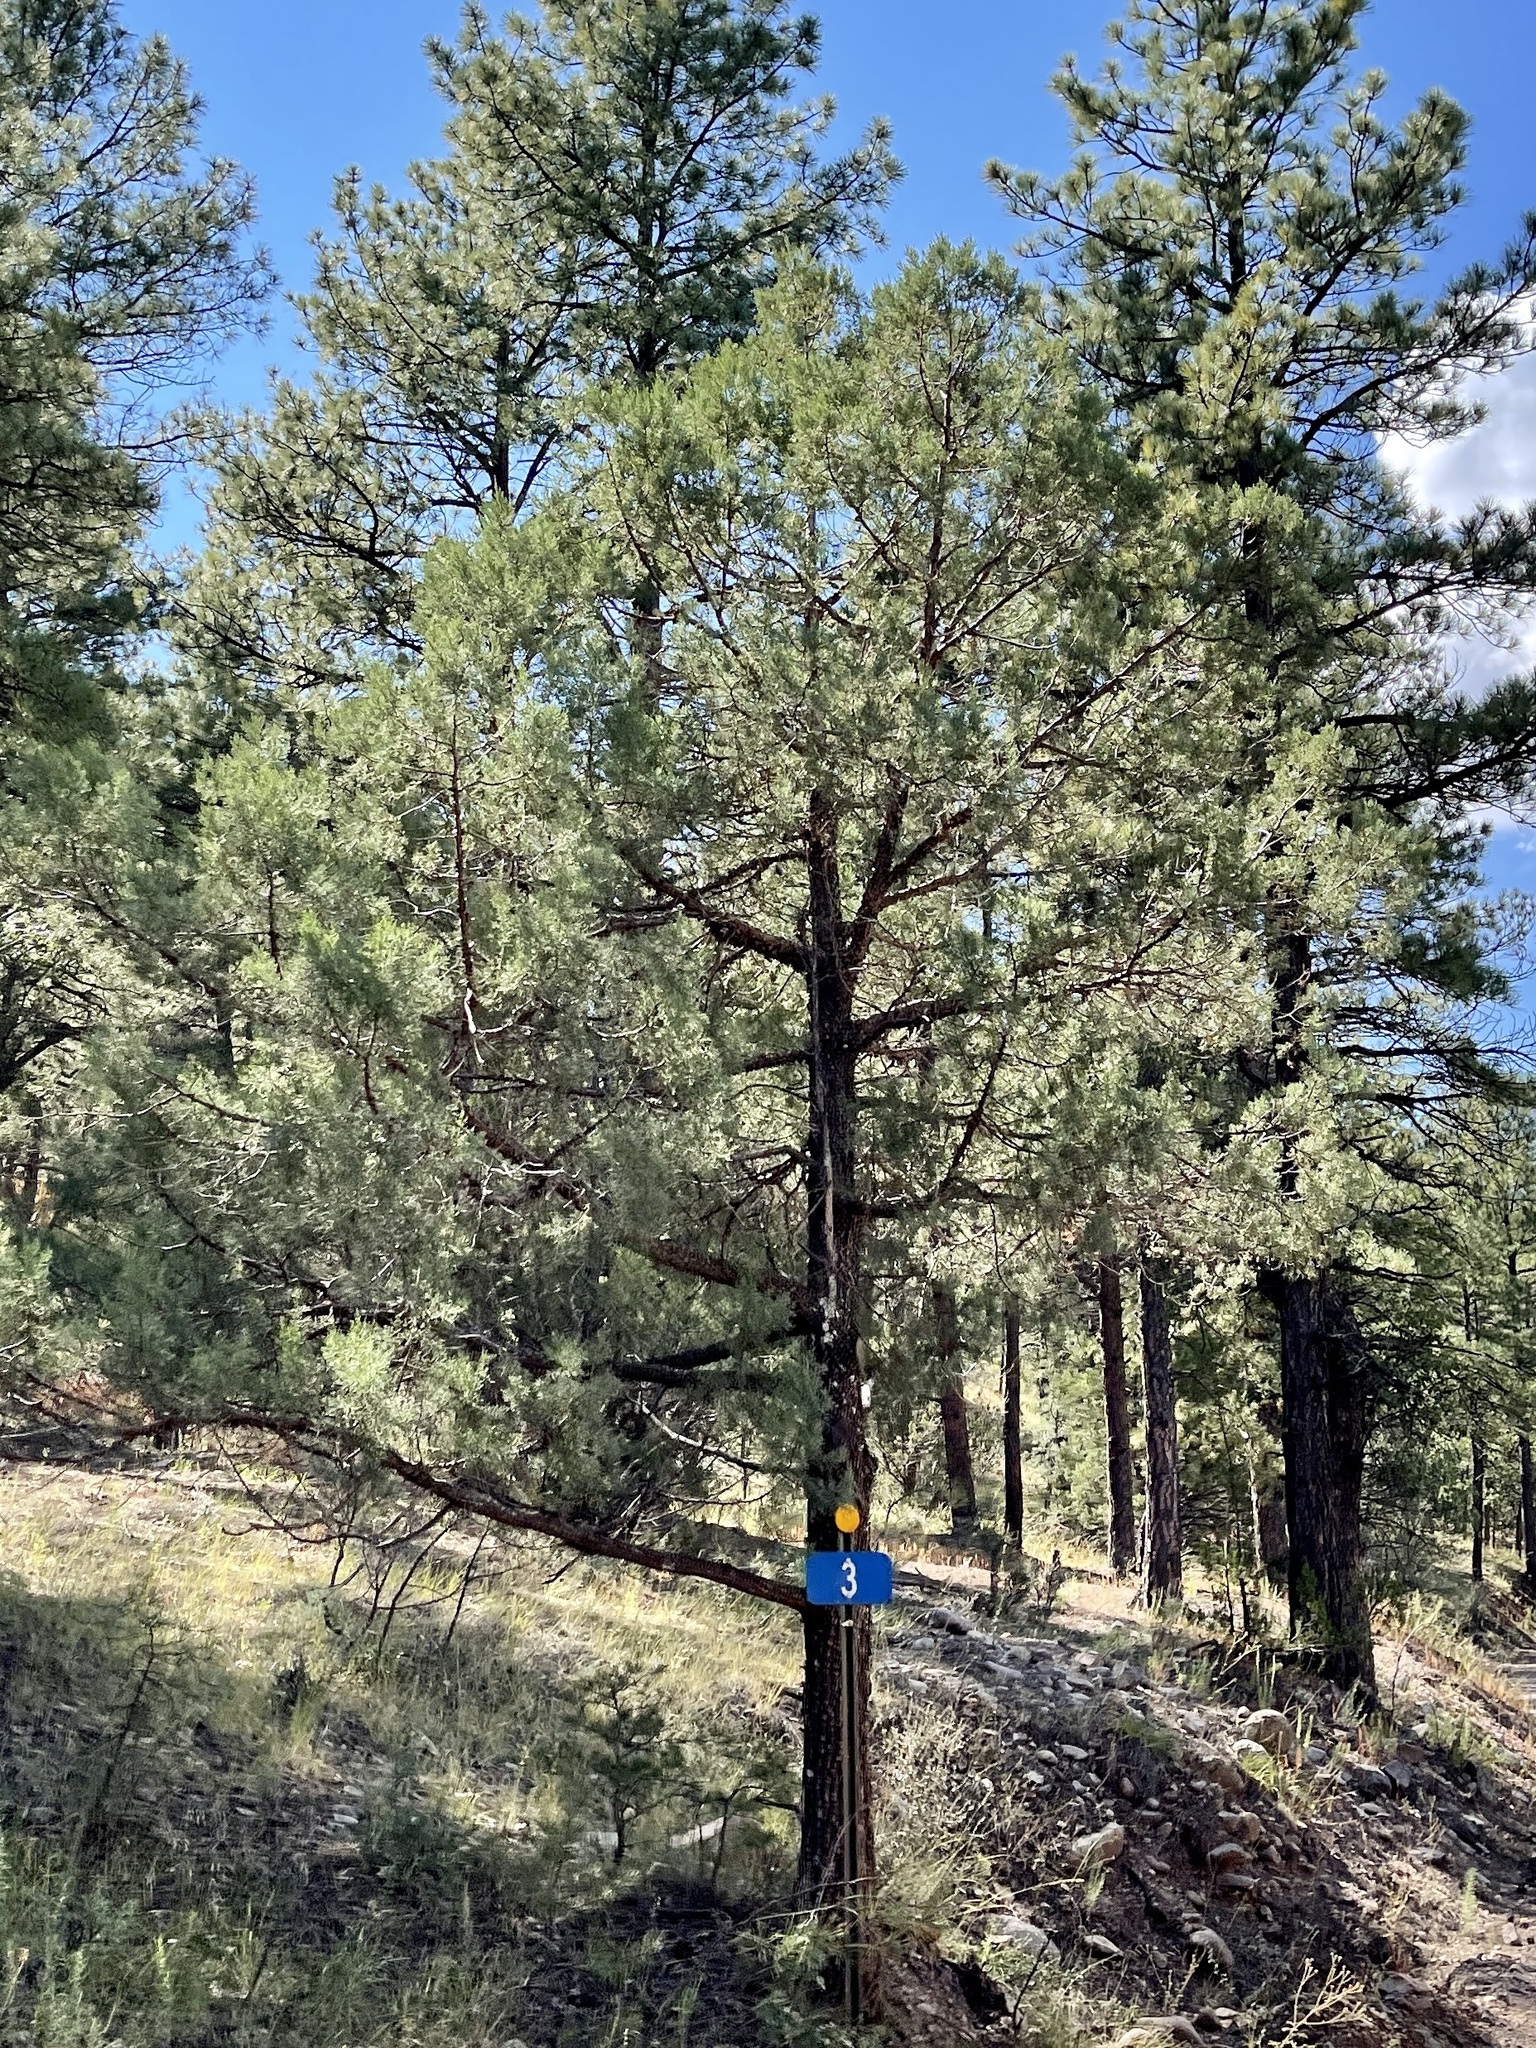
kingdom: Plantae
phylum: Tracheophyta
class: Pinopsida
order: Pinales
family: Cupressaceae
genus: Juniperus
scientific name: Juniperus deppeana
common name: Alligator juniper
